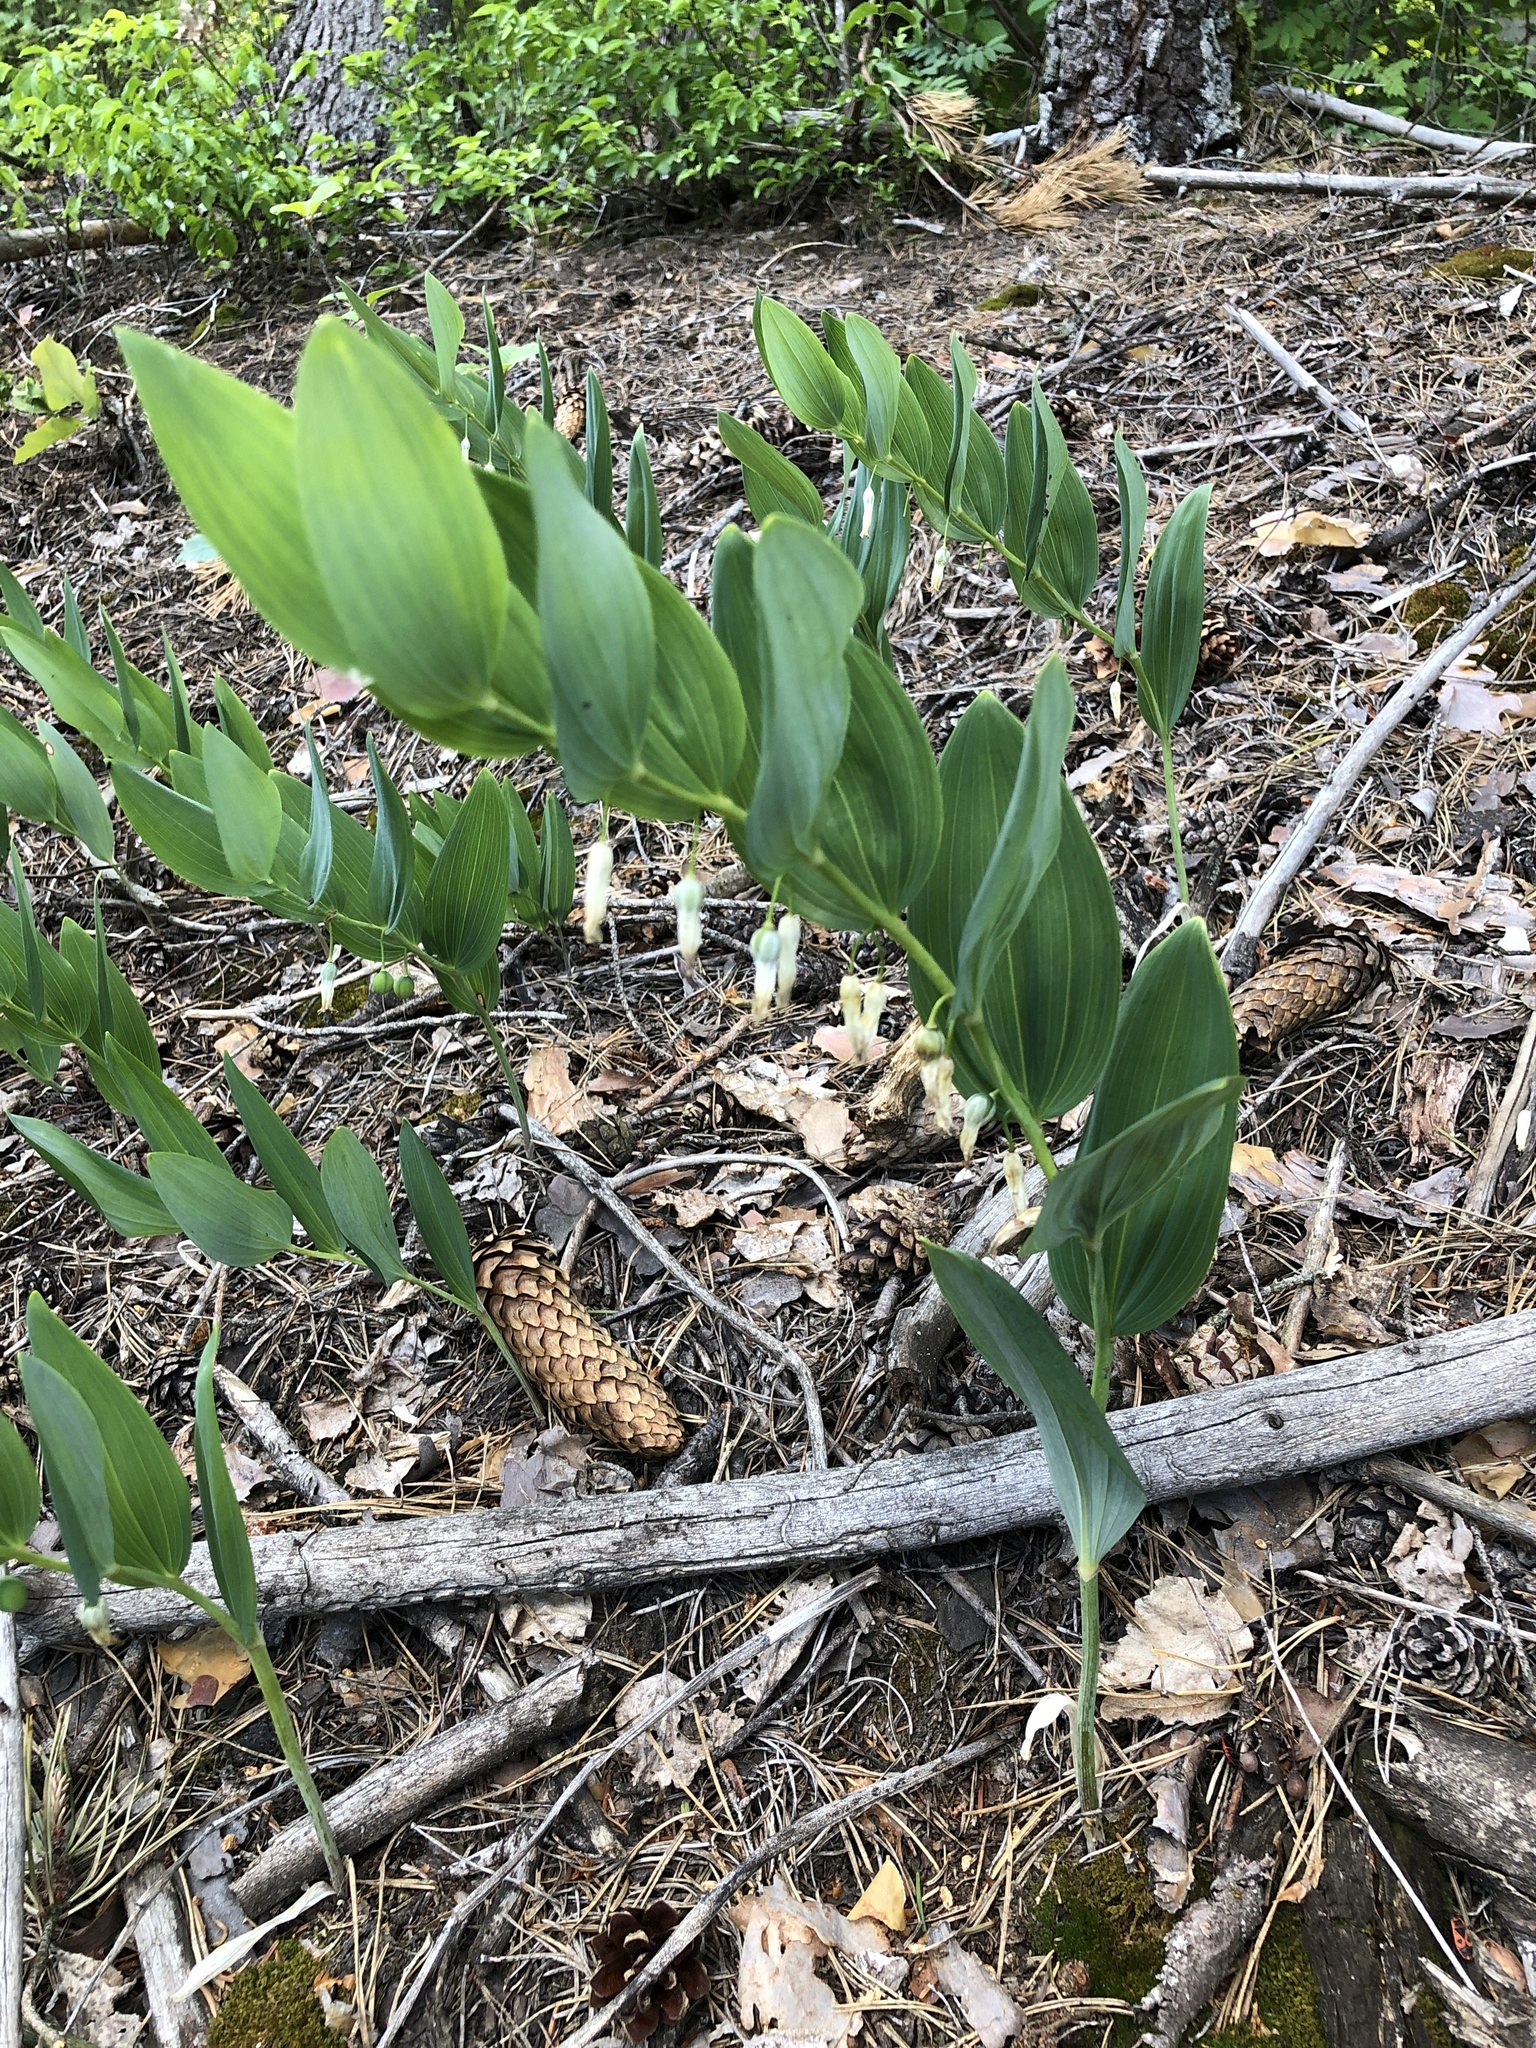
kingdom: Plantae
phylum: Tracheophyta
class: Liliopsida
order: Asparagales
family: Asparagaceae
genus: Polygonatum
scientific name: Polygonatum odoratum
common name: Angular solomon's-seal
